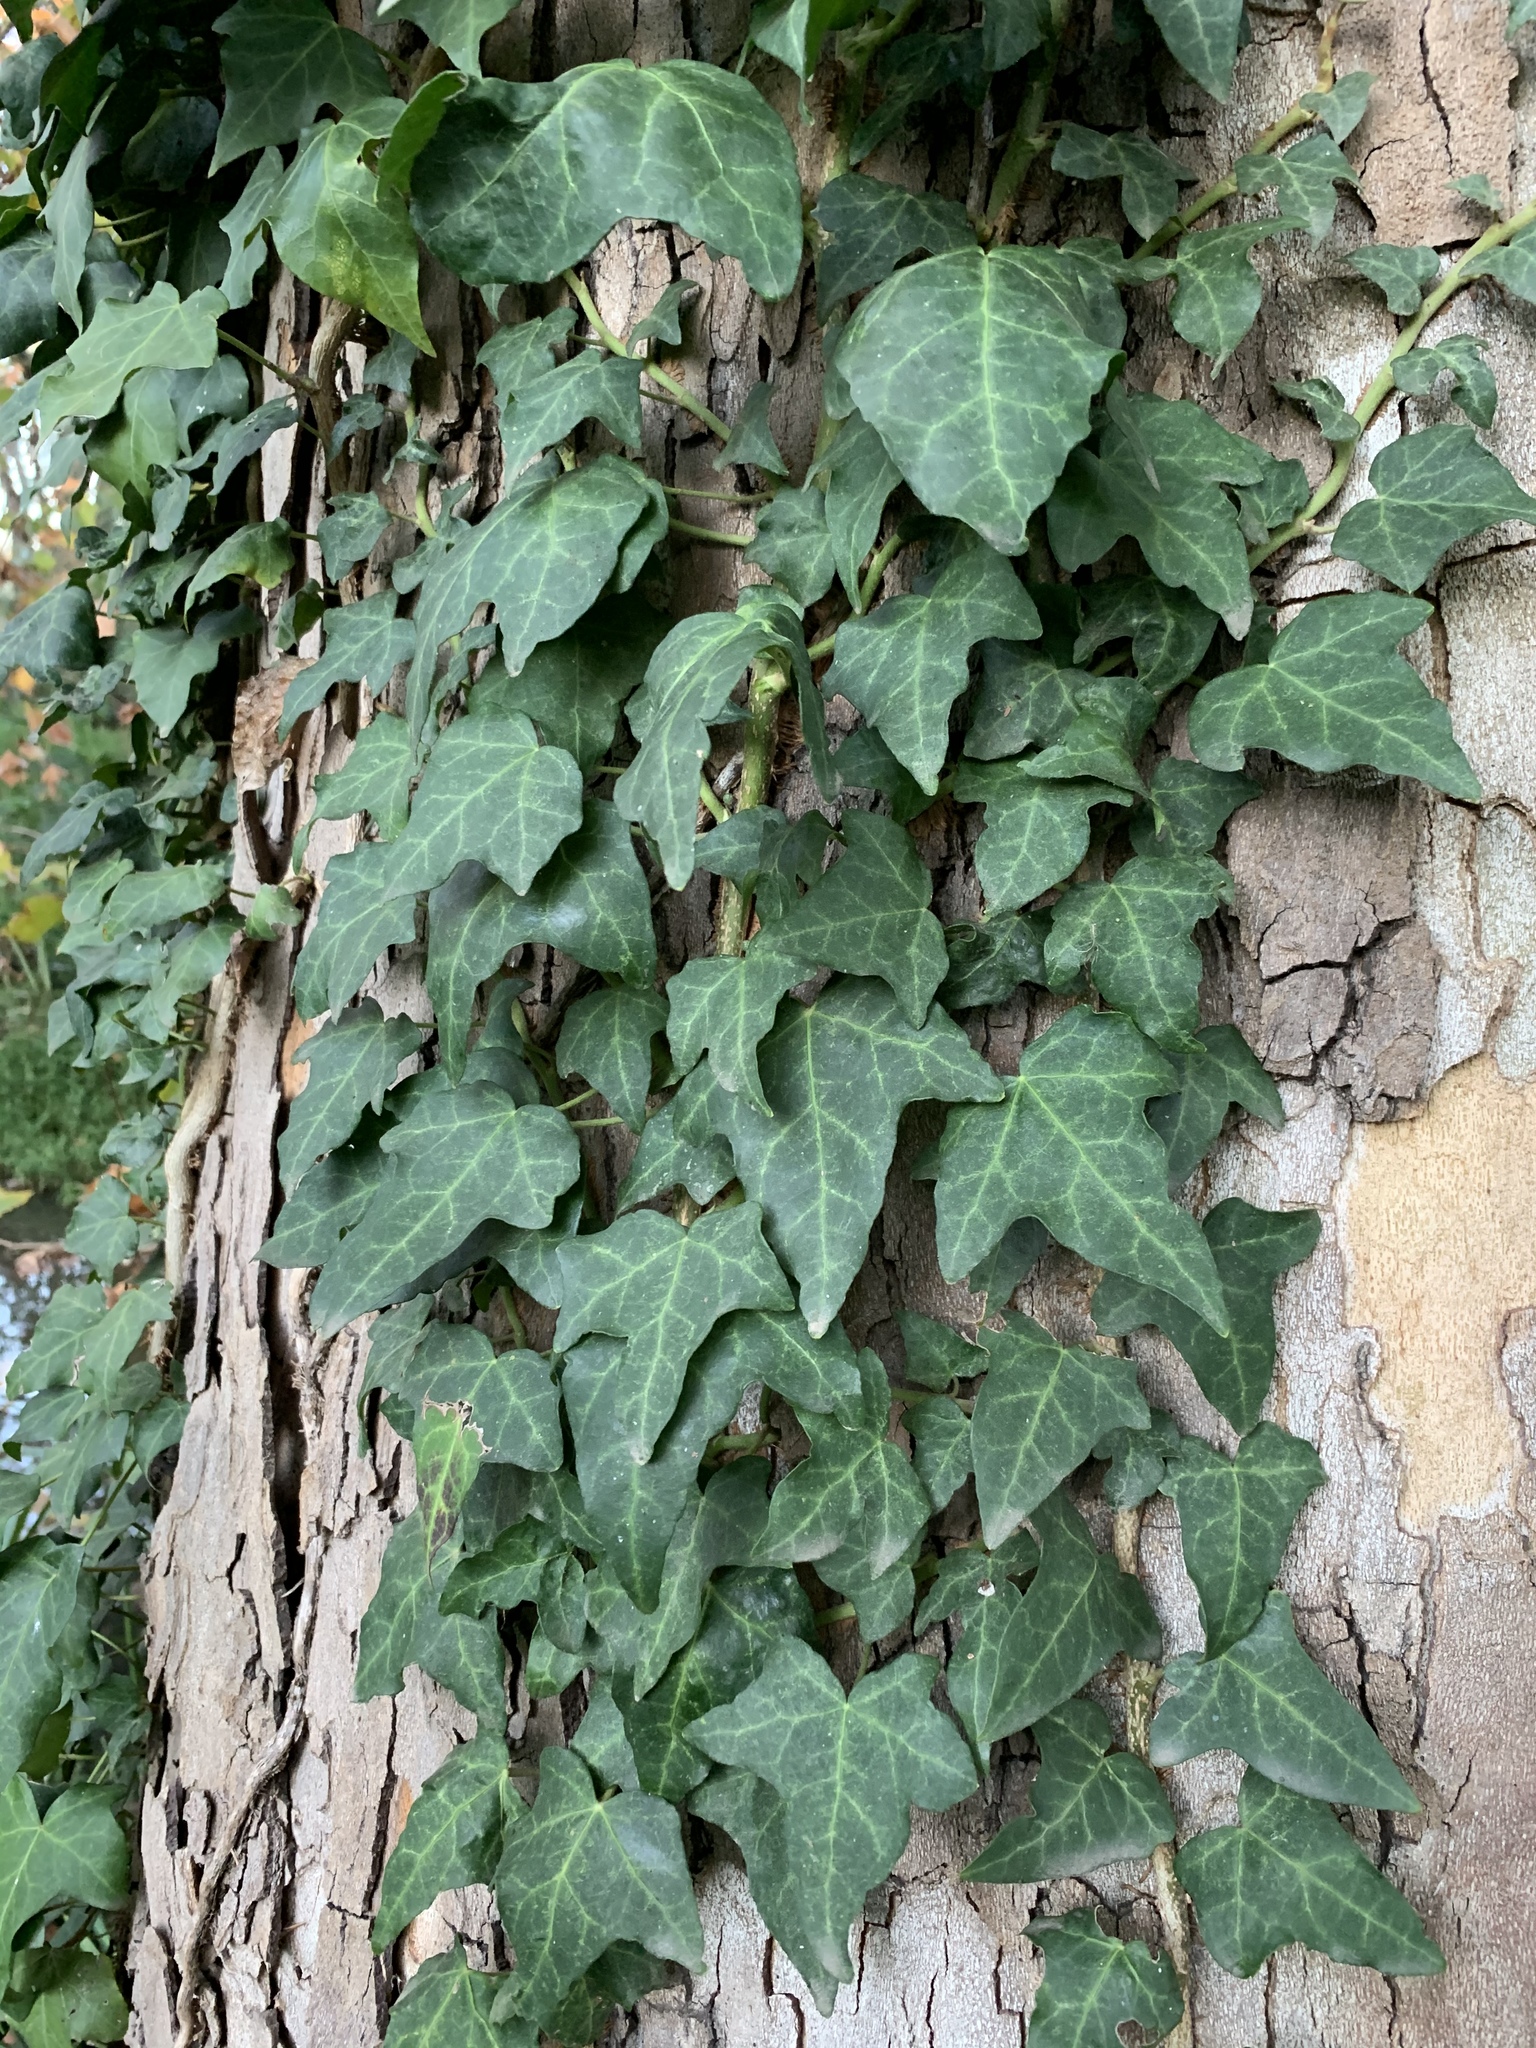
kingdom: Plantae
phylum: Tracheophyta
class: Magnoliopsida
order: Apiales
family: Araliaceae
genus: Hedera
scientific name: Hedera helix
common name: Ivy
